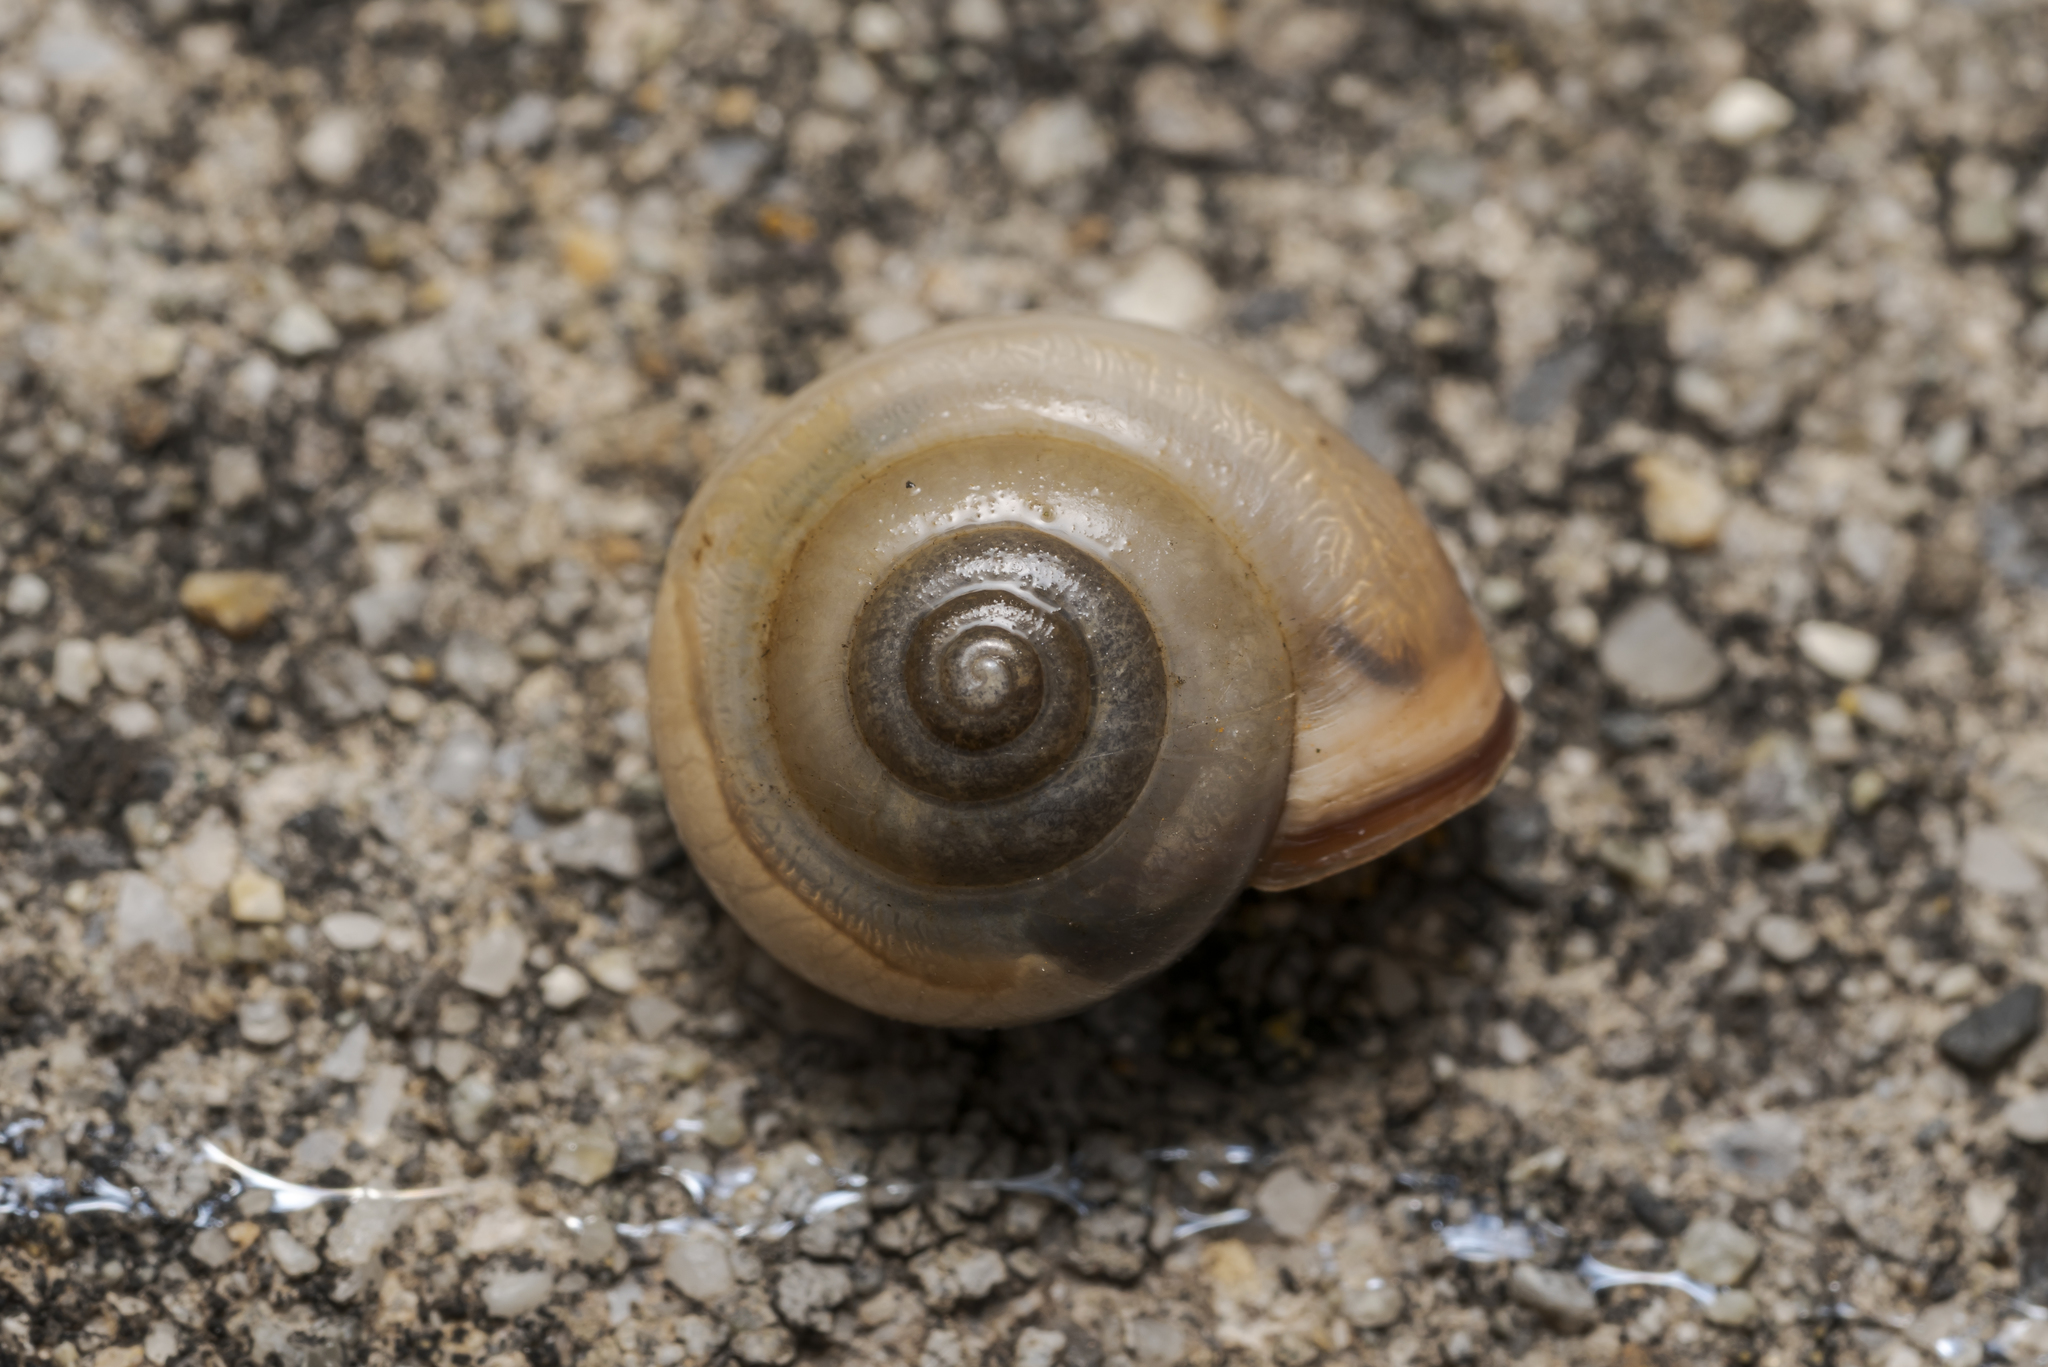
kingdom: Animalia
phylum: Mollusca
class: Gastropoda
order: Stylommatophora
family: Hygromiidae
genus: Monacha
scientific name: Monacha cartusiana
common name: Carthusian snail
